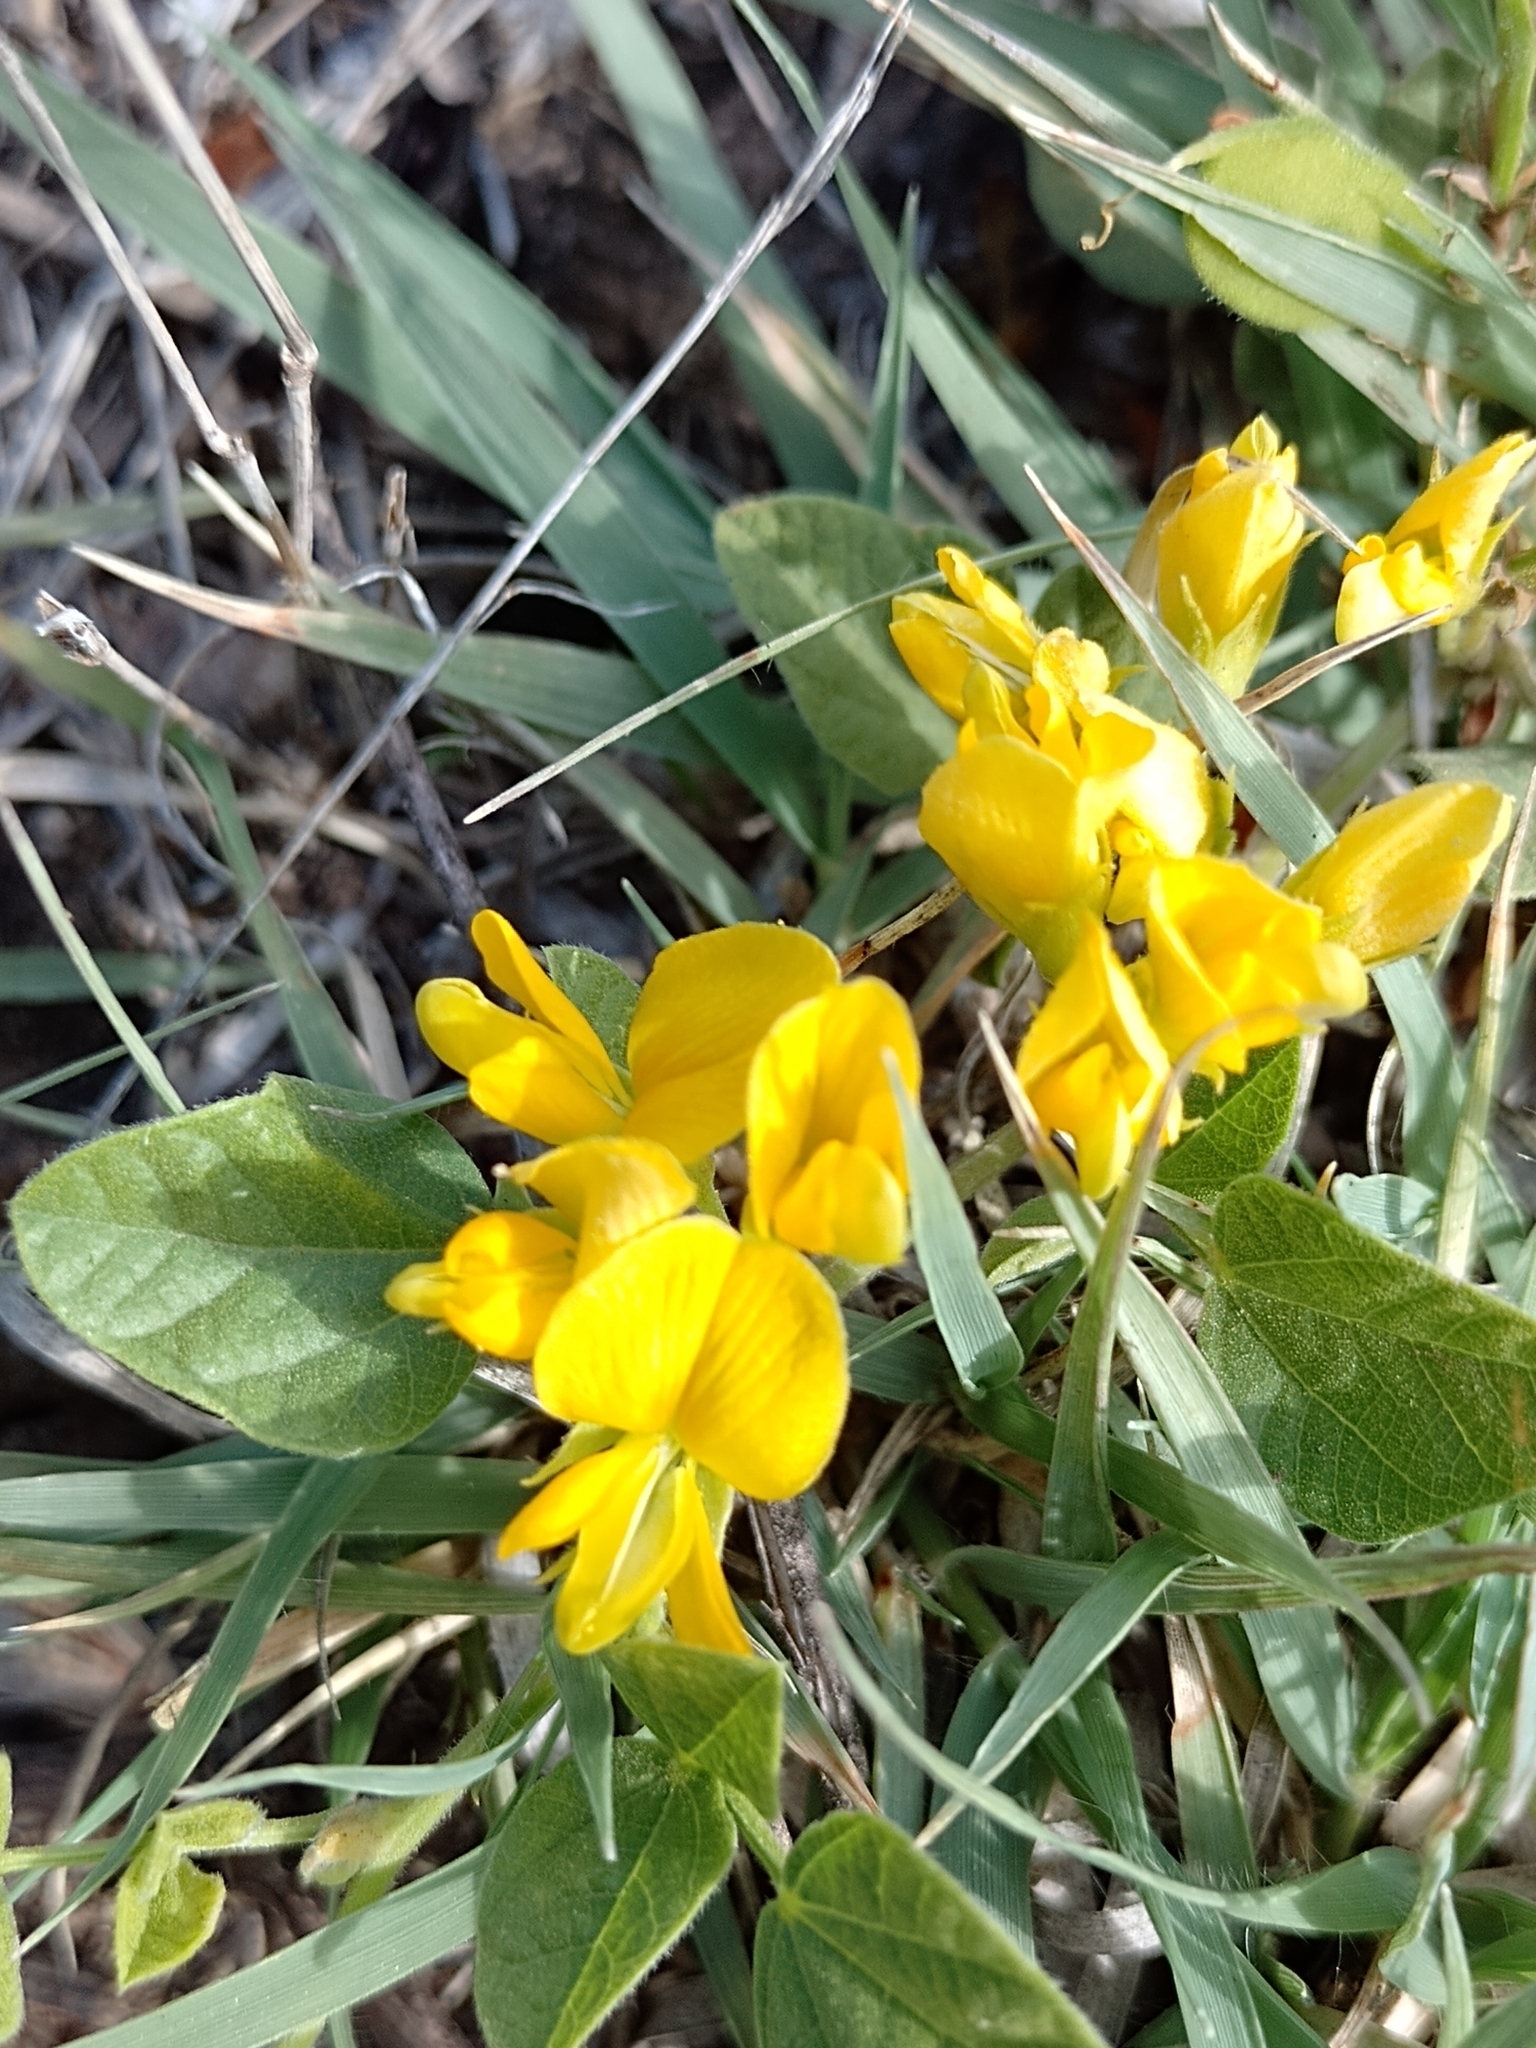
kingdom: Plantae
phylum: Tracheophyta
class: Magnoliopsida
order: Fabales
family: Fabaceae
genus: Rhynchosia
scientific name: Rhynchosia edulis
